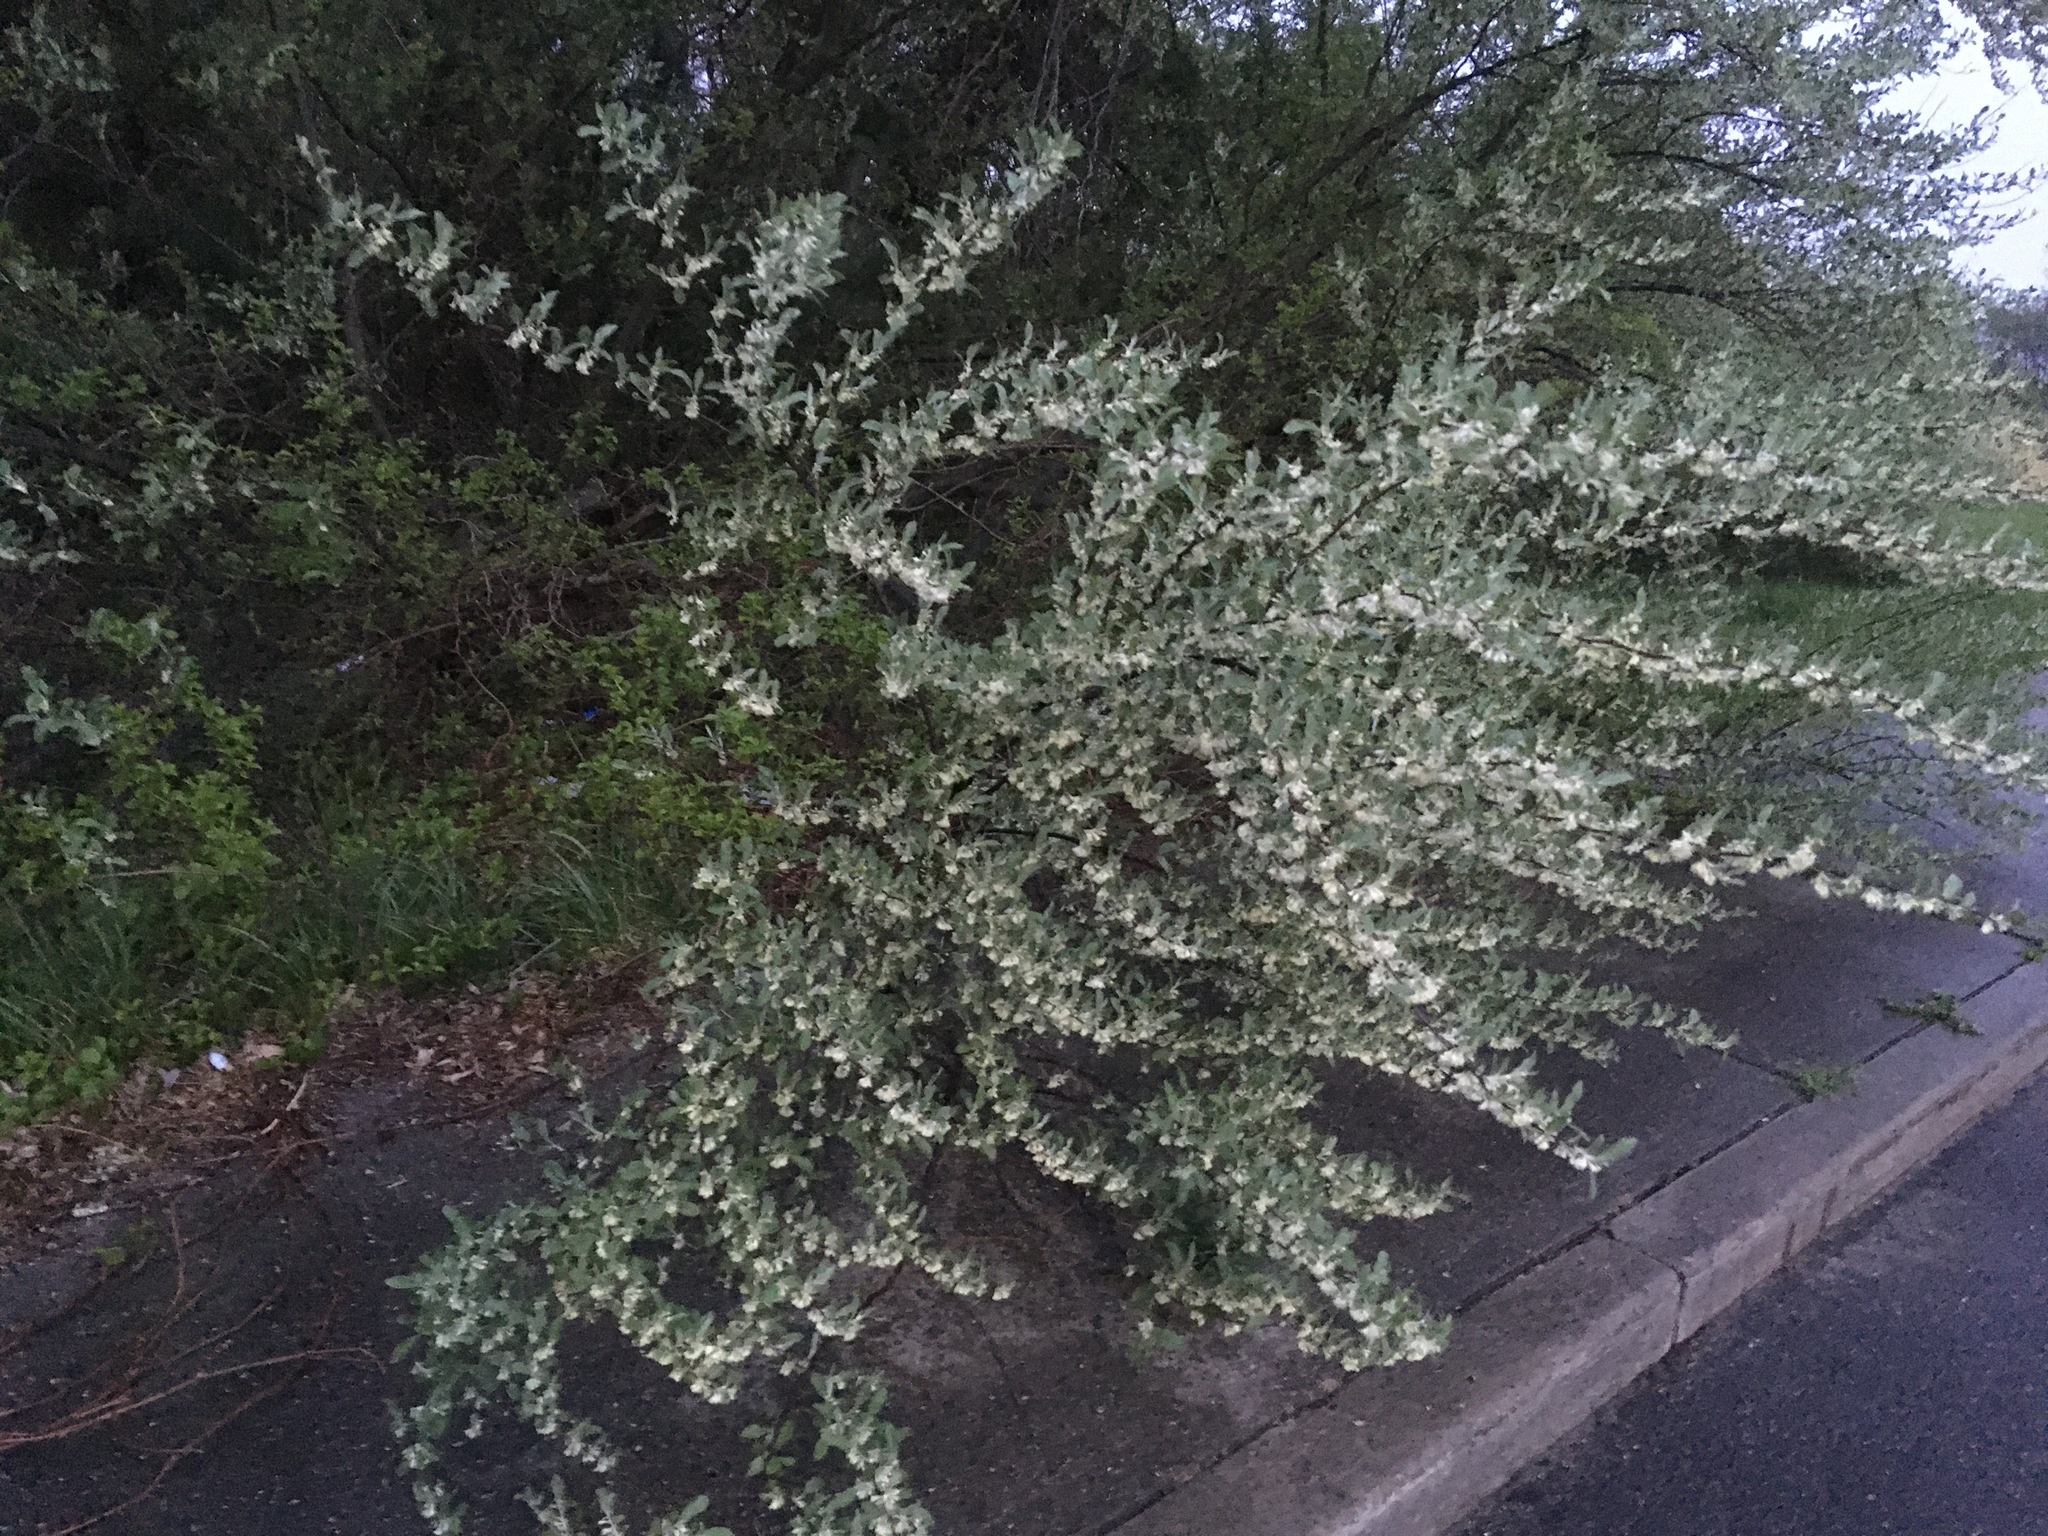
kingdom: Plantae
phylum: Tracheophyta
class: Magnoliopsida
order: Rosales
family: Elaeagnaceae
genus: Elaeagnus
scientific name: Elaeagnus umbellata
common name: Autumn olive
